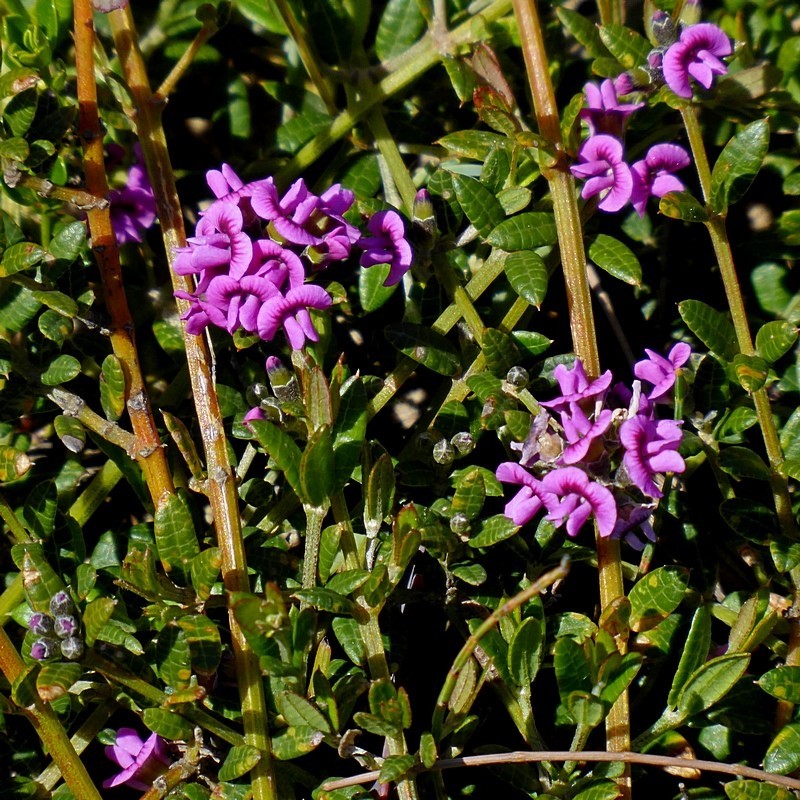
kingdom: Plantae
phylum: Tracheophyta
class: Magnoliopsida
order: Fabales
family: Fabaceae
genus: Mirbelia
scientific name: Mirbelia rubiifolia
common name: Heathy mirbelia
